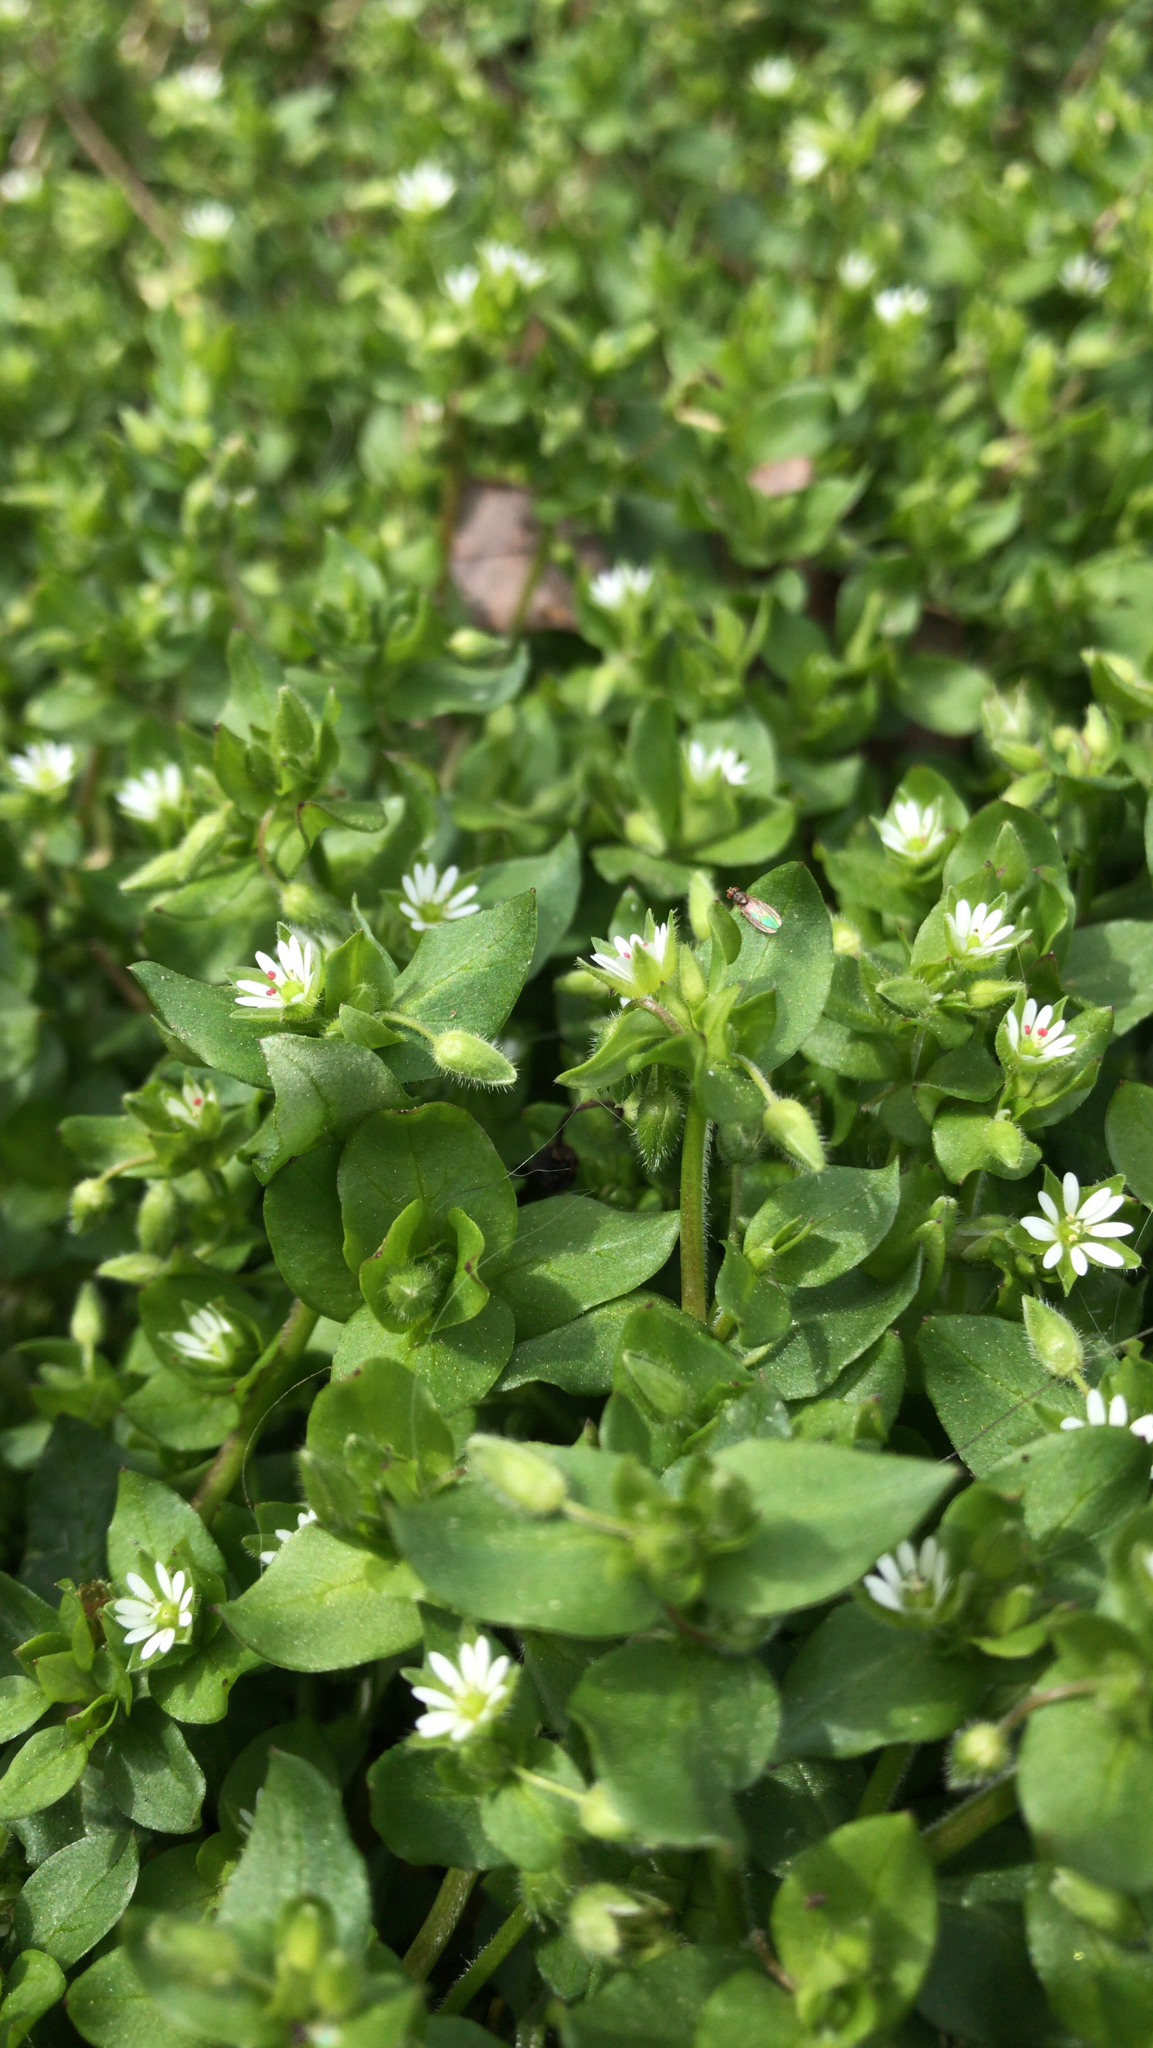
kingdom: Plantae
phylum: Tracheophyta
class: Magnoliopsida
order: Caryophyllales
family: Caryophyllaceae
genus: Stellaria
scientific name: Stellaria media
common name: Common chickweed
